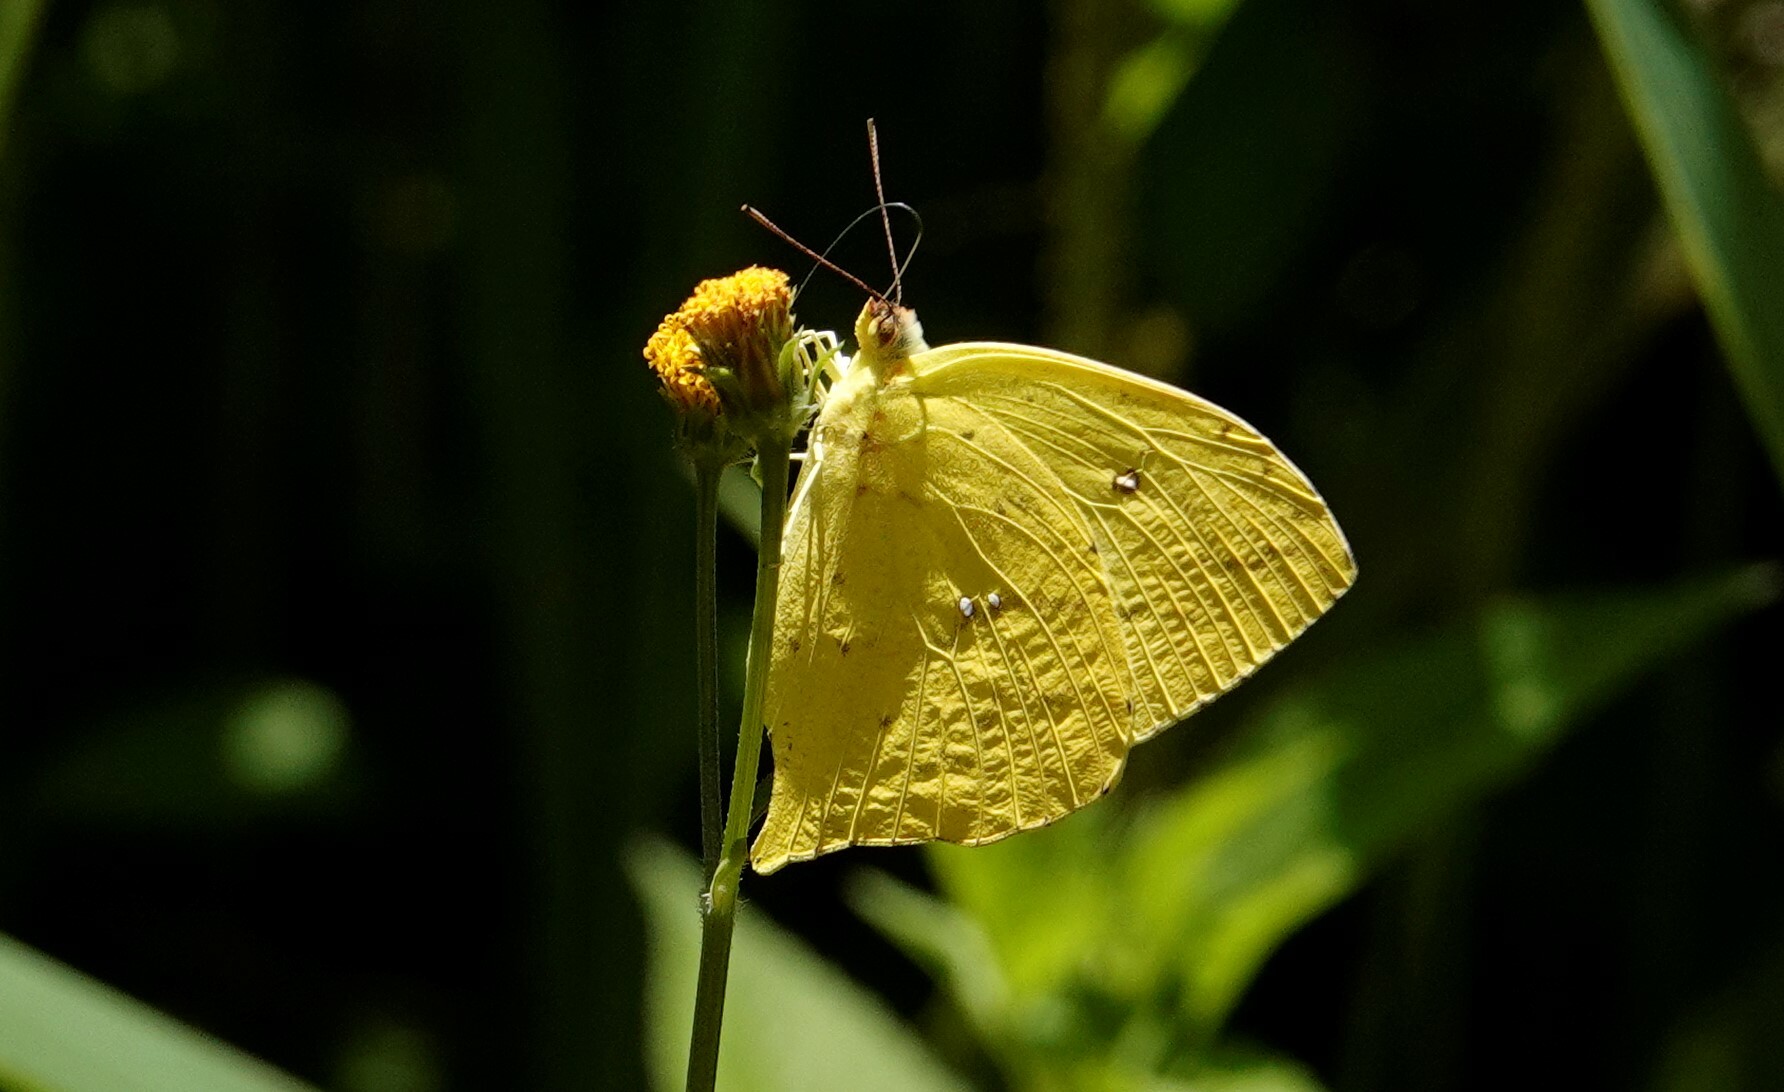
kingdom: Animalia
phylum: Arthropoda
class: Insecta
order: Lepidoptera
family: Pieridae
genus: Phoebis
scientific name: Phoebis neocypris
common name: Tailed sulphur
